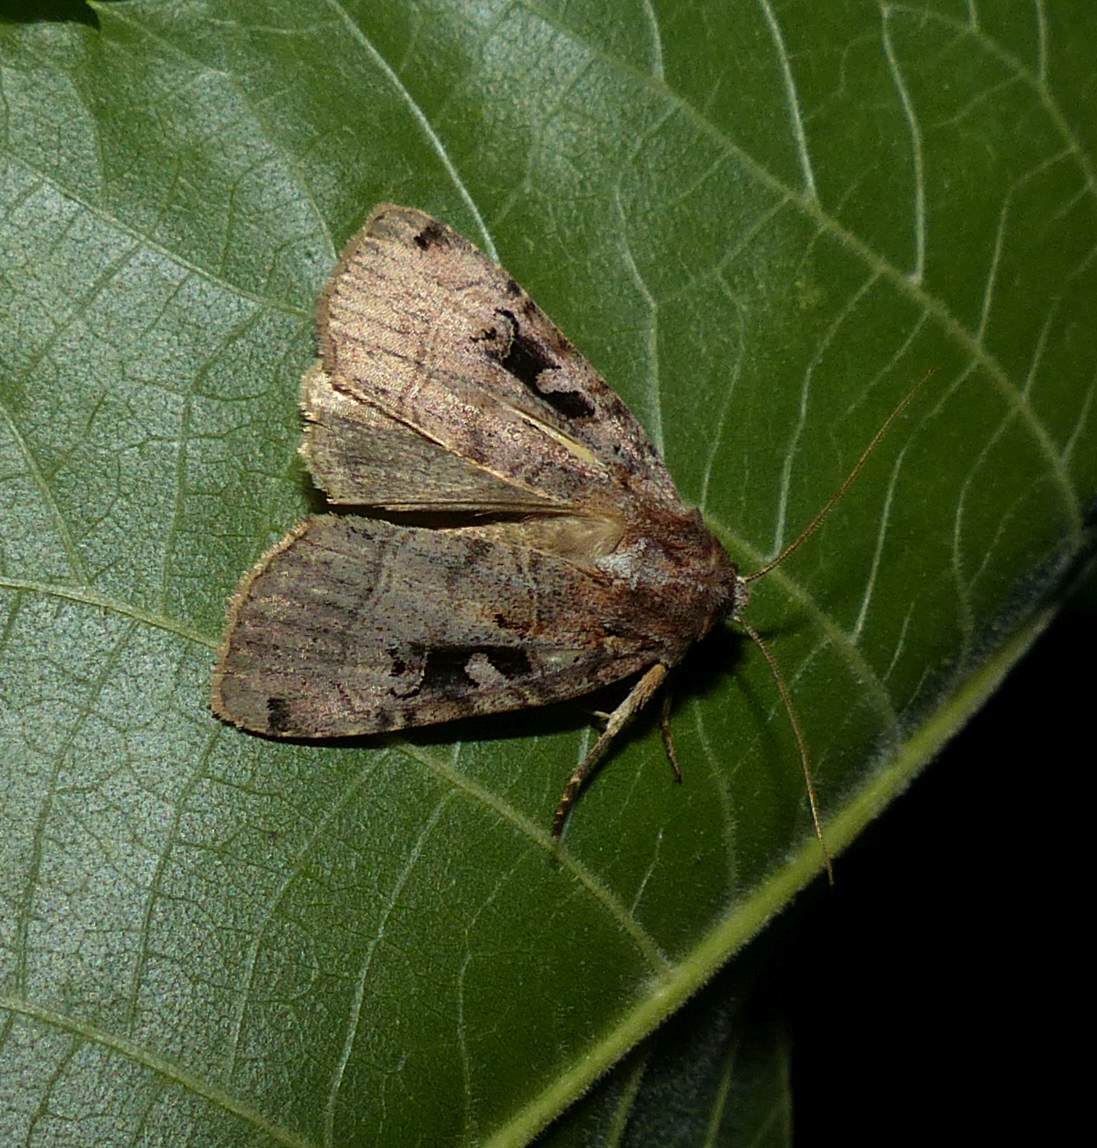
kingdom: Animalia
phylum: Arthropoda
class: Insecta
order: Lepidoptera
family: Noctuidae
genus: Xestia
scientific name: Xestia normaniana
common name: Norman's dart moth
